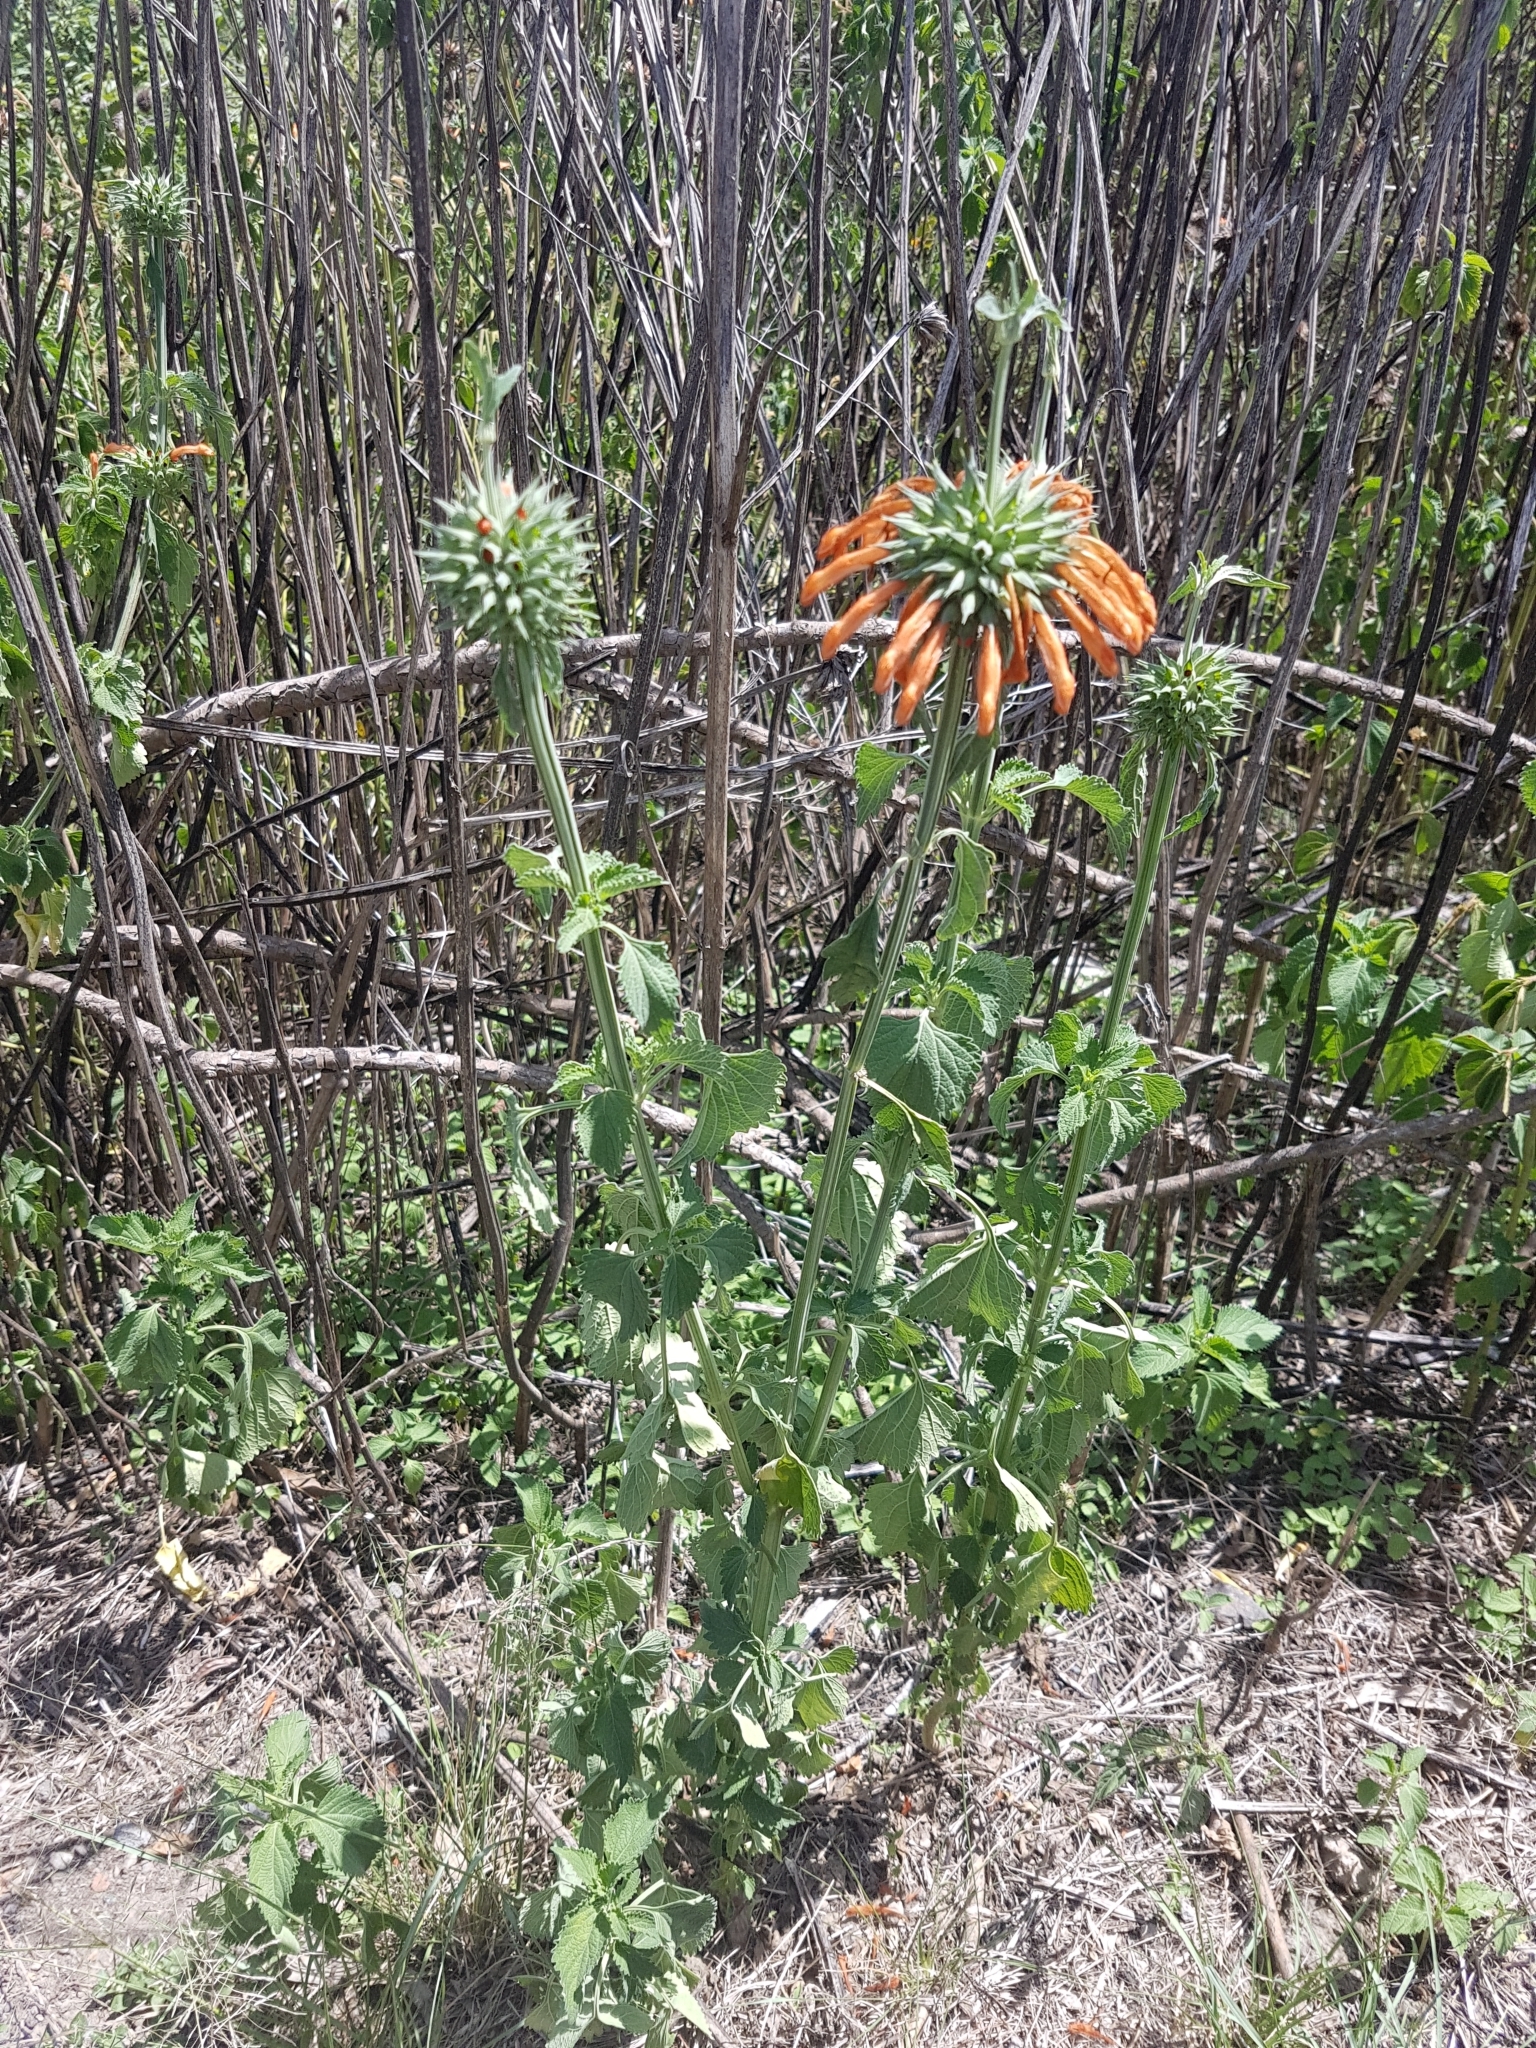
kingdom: Plantae
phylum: Tracheophyta
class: Magnoliopsida
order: Lamiales
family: Lamiaceae
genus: Leonotis
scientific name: Leonotis nepetifolia
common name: Christmas candlestick
